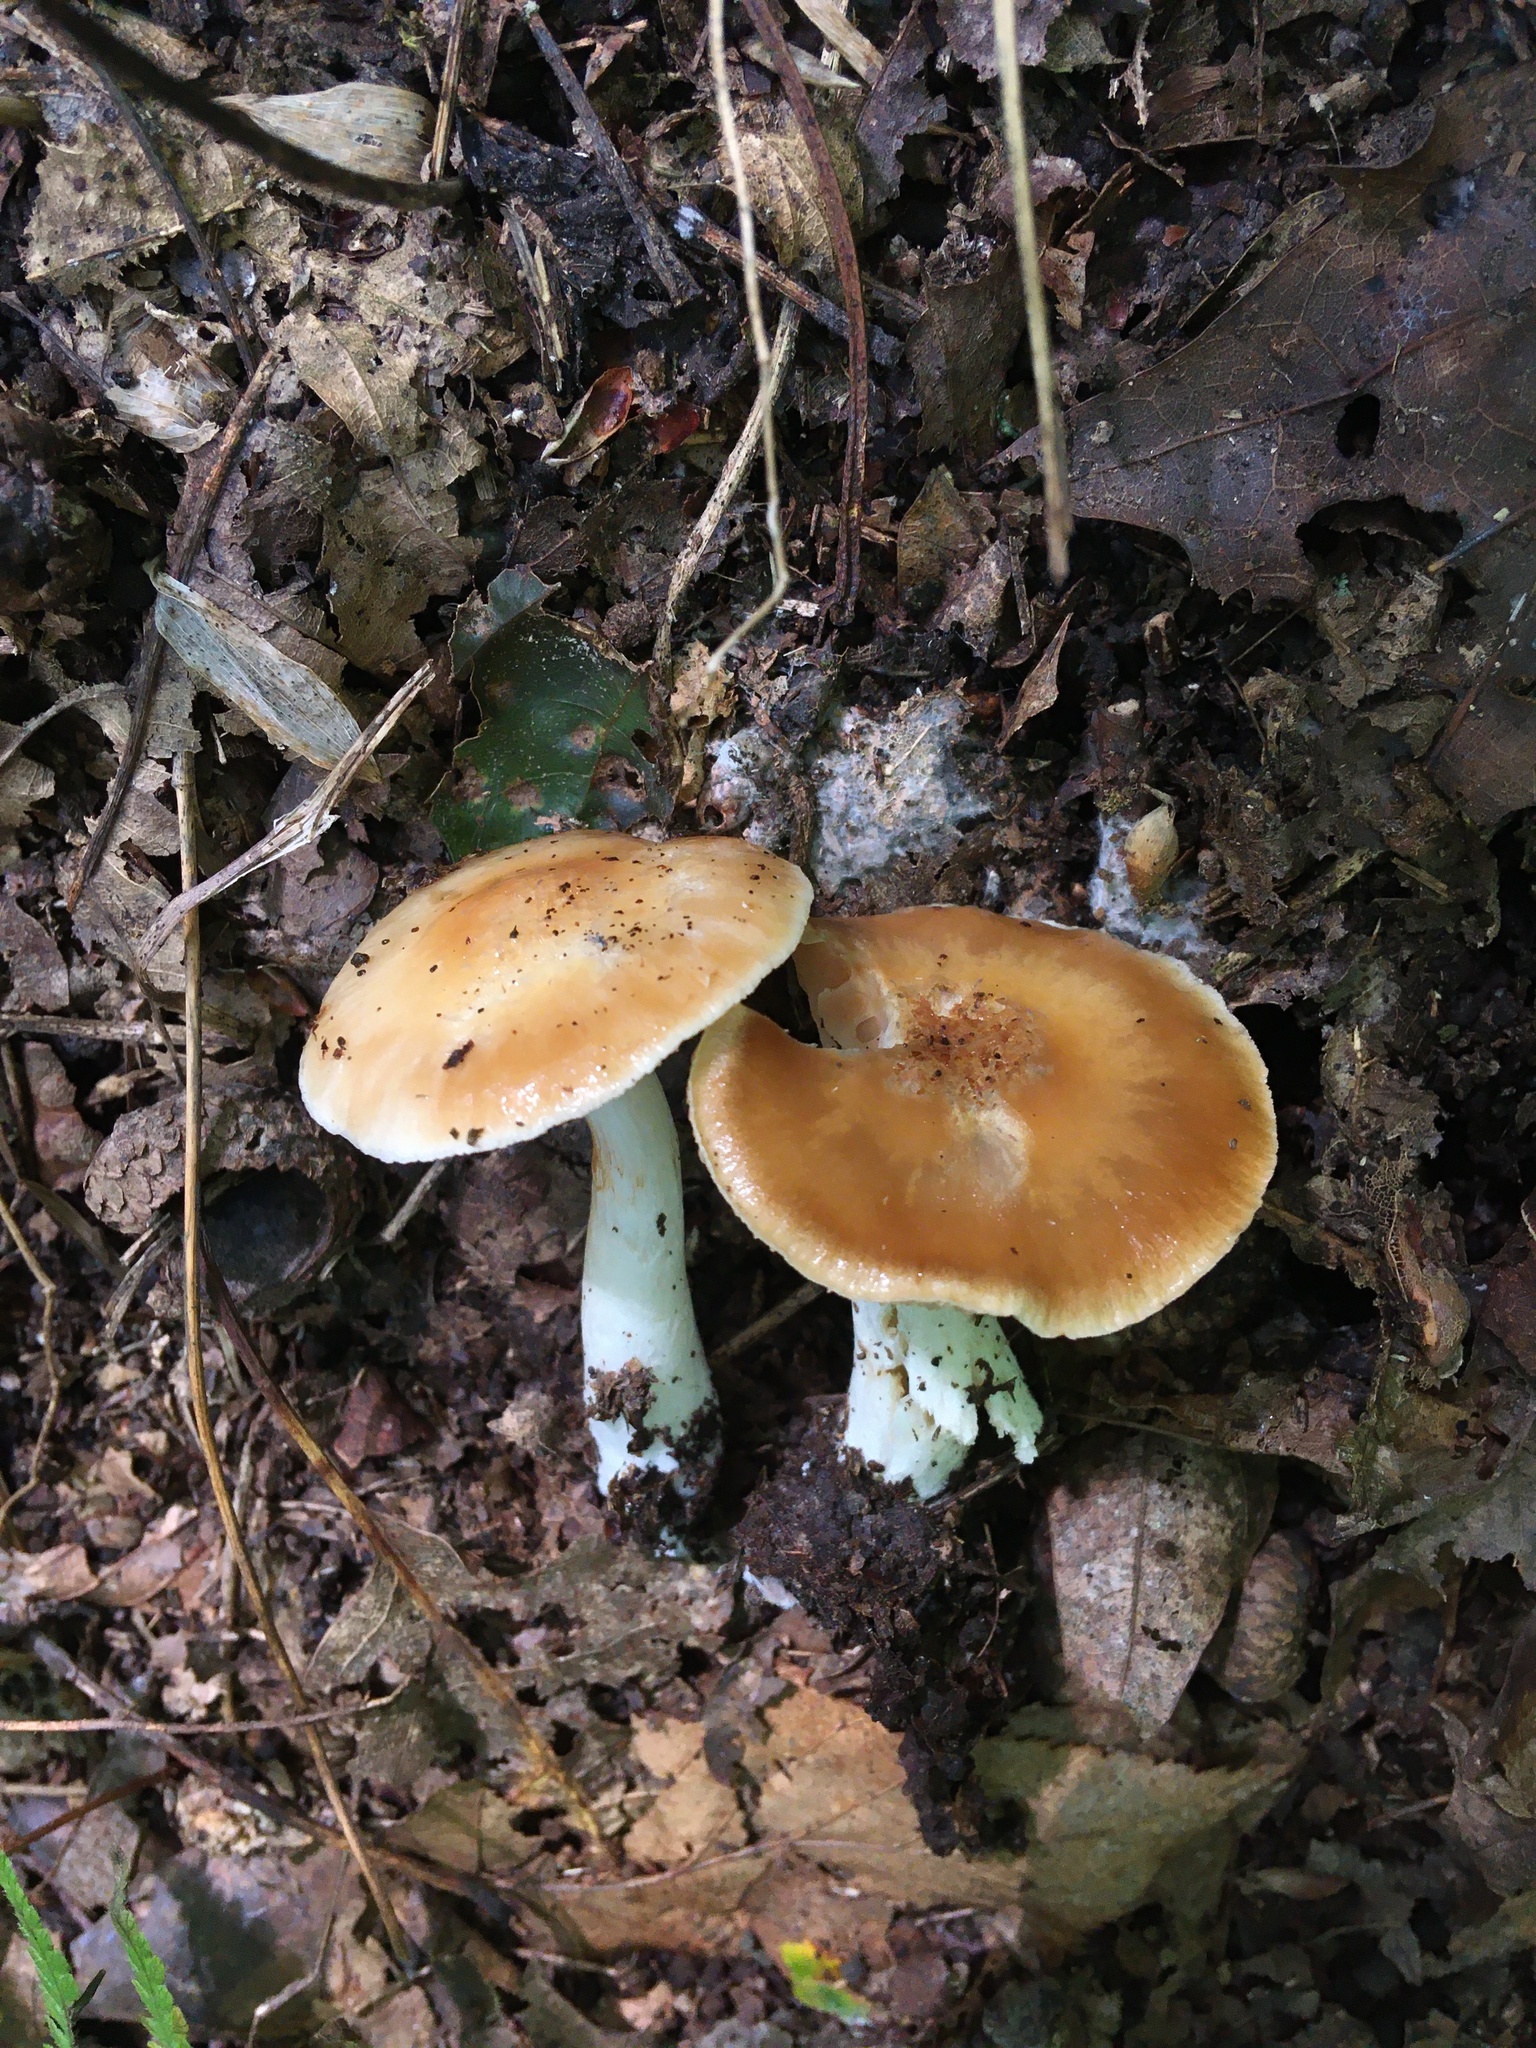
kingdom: Fungi
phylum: Basidiomycota
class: Agaricomycetes
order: Agaricales
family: Cortinariaceae
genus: Thaxterogaster
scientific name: Thaxterogaster vibratilis
